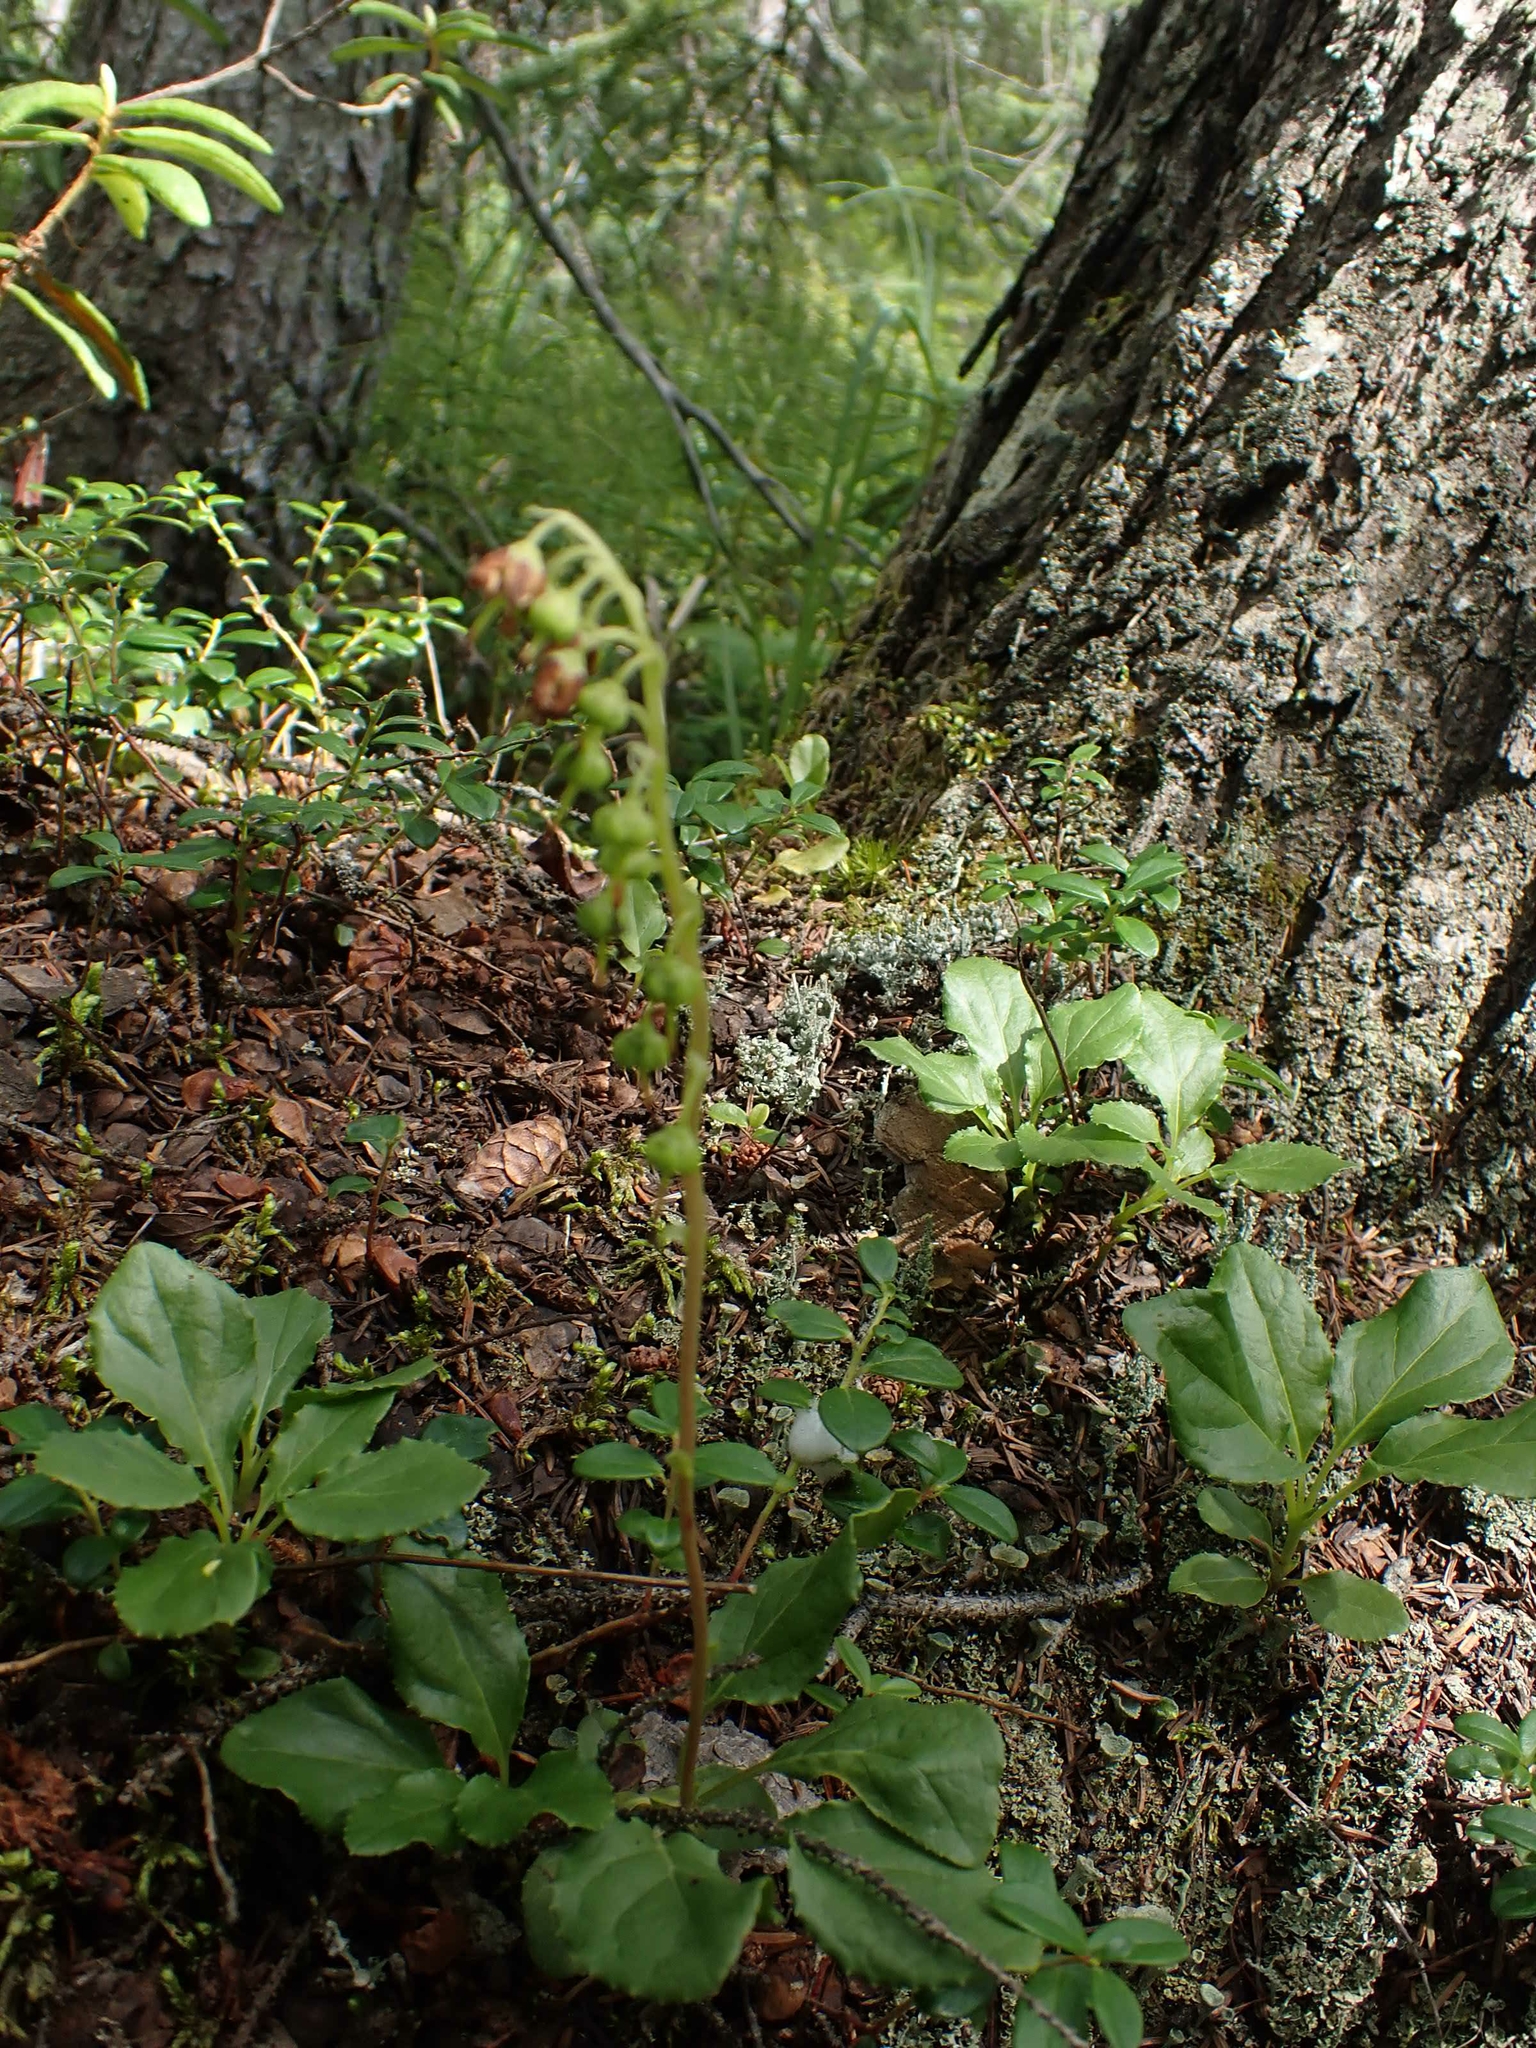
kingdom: Plantae
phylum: Tracheophyta
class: Magnoliopsida
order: Ericales
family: Ericaceae
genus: Orthilia
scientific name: Orthilia secunda
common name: One-sided orthilia
